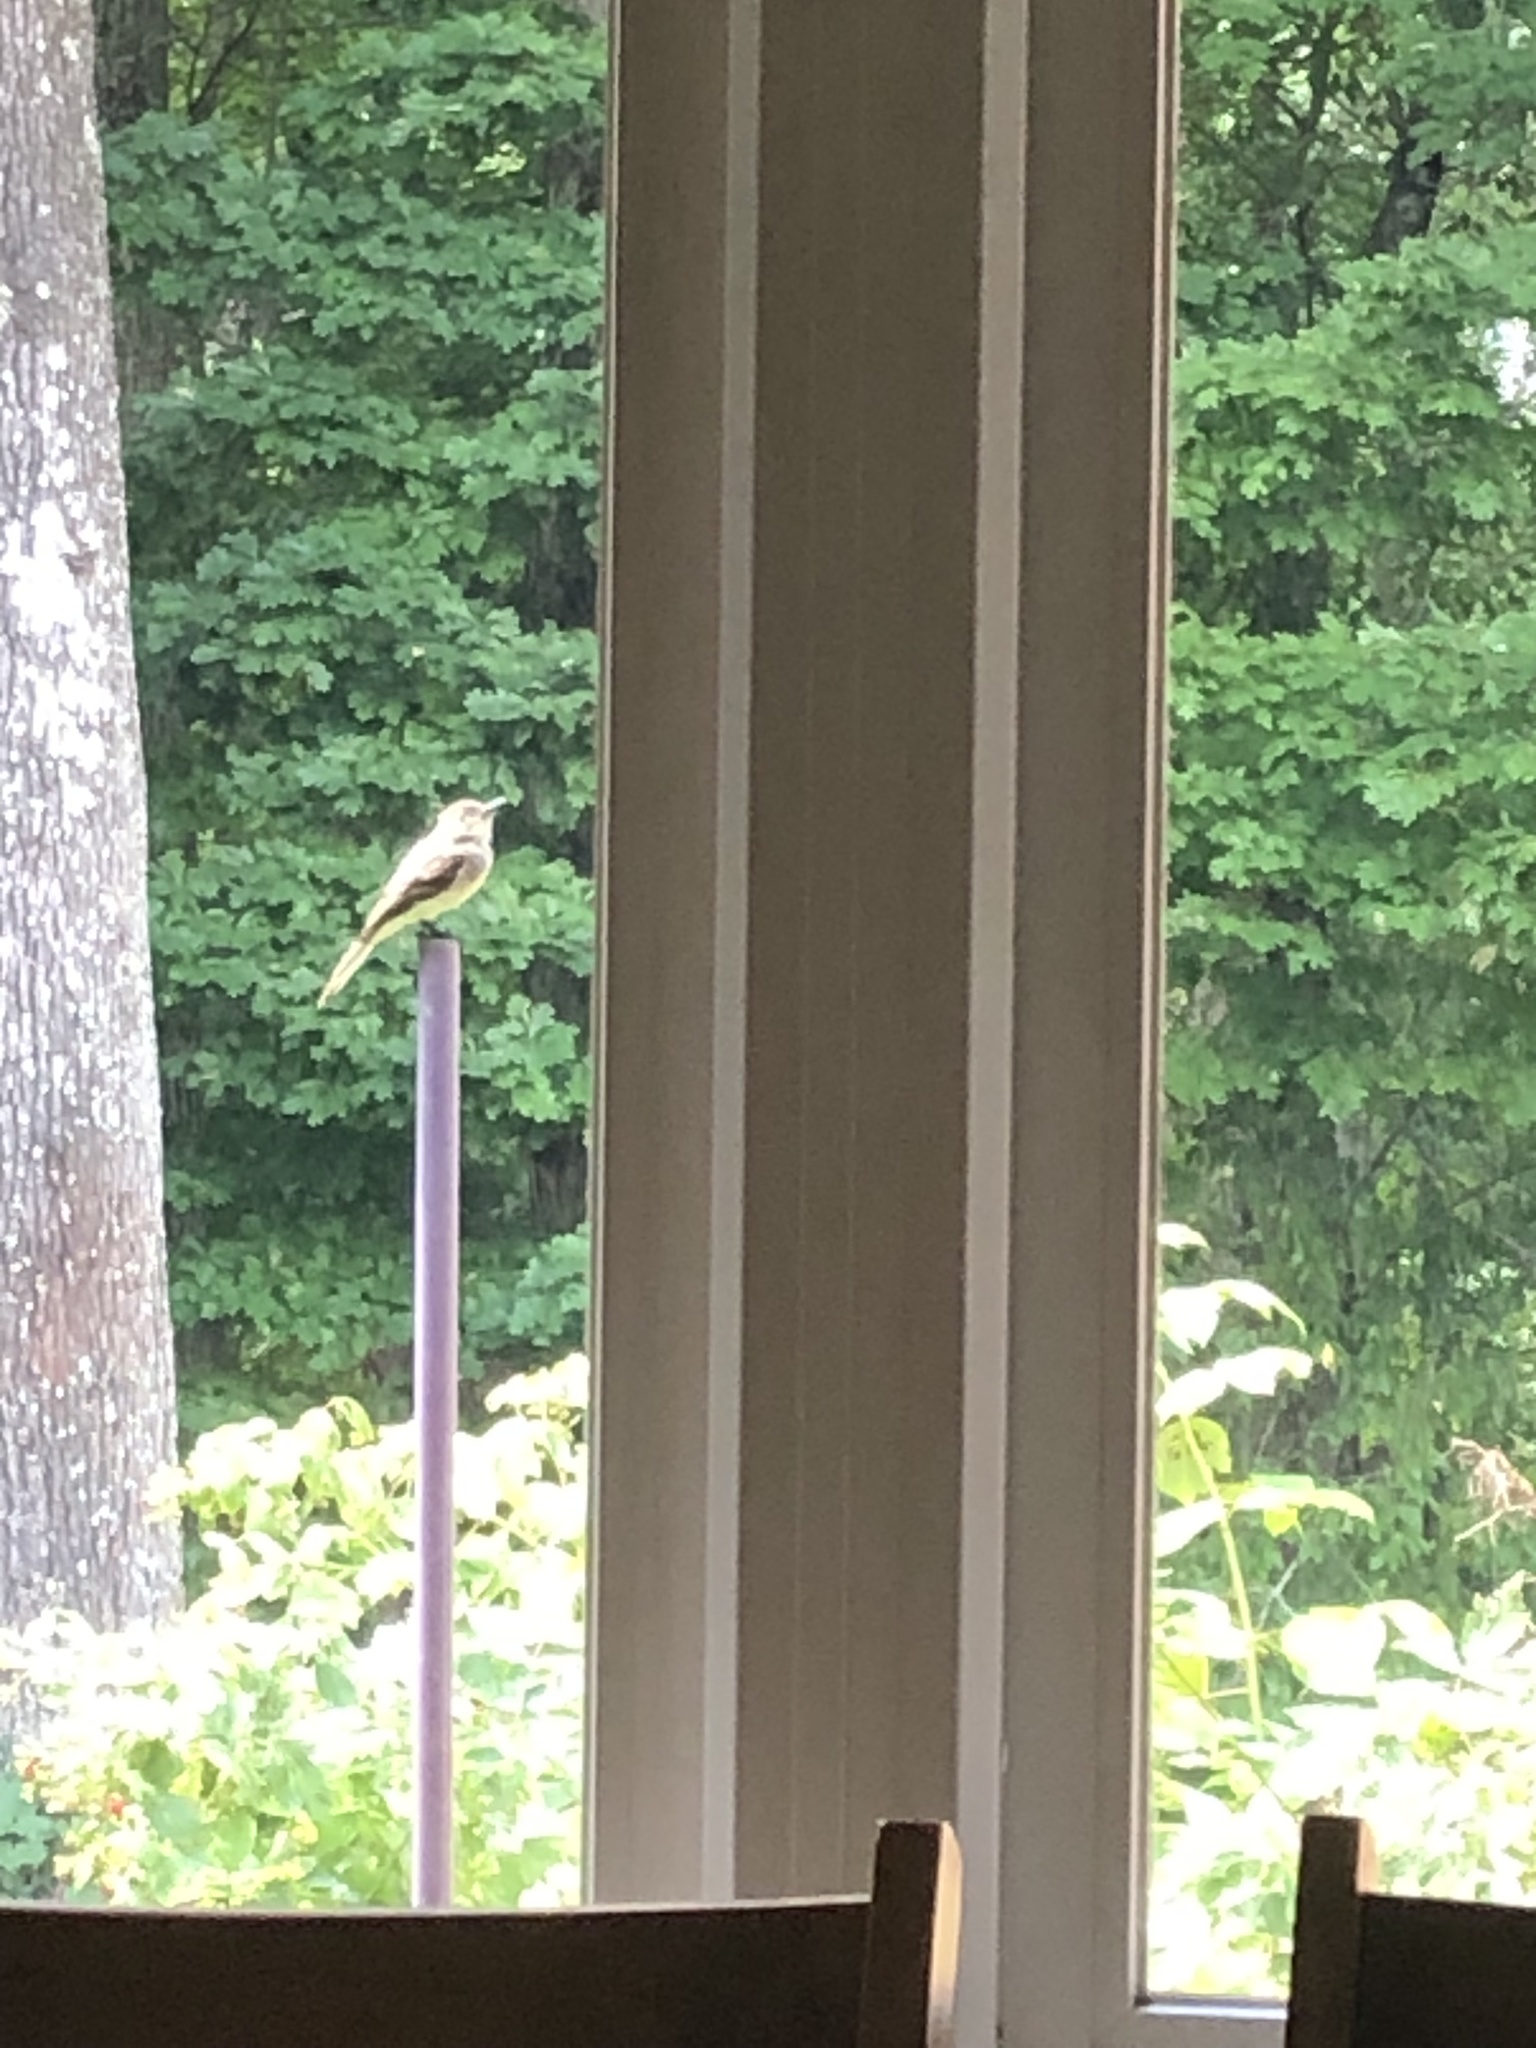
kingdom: Animalia
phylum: Chordata
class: Aves
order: Passeriformes
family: Tyrannidae
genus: Myiarchus
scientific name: Myiarchus crinitus
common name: Great crested flycatcher
